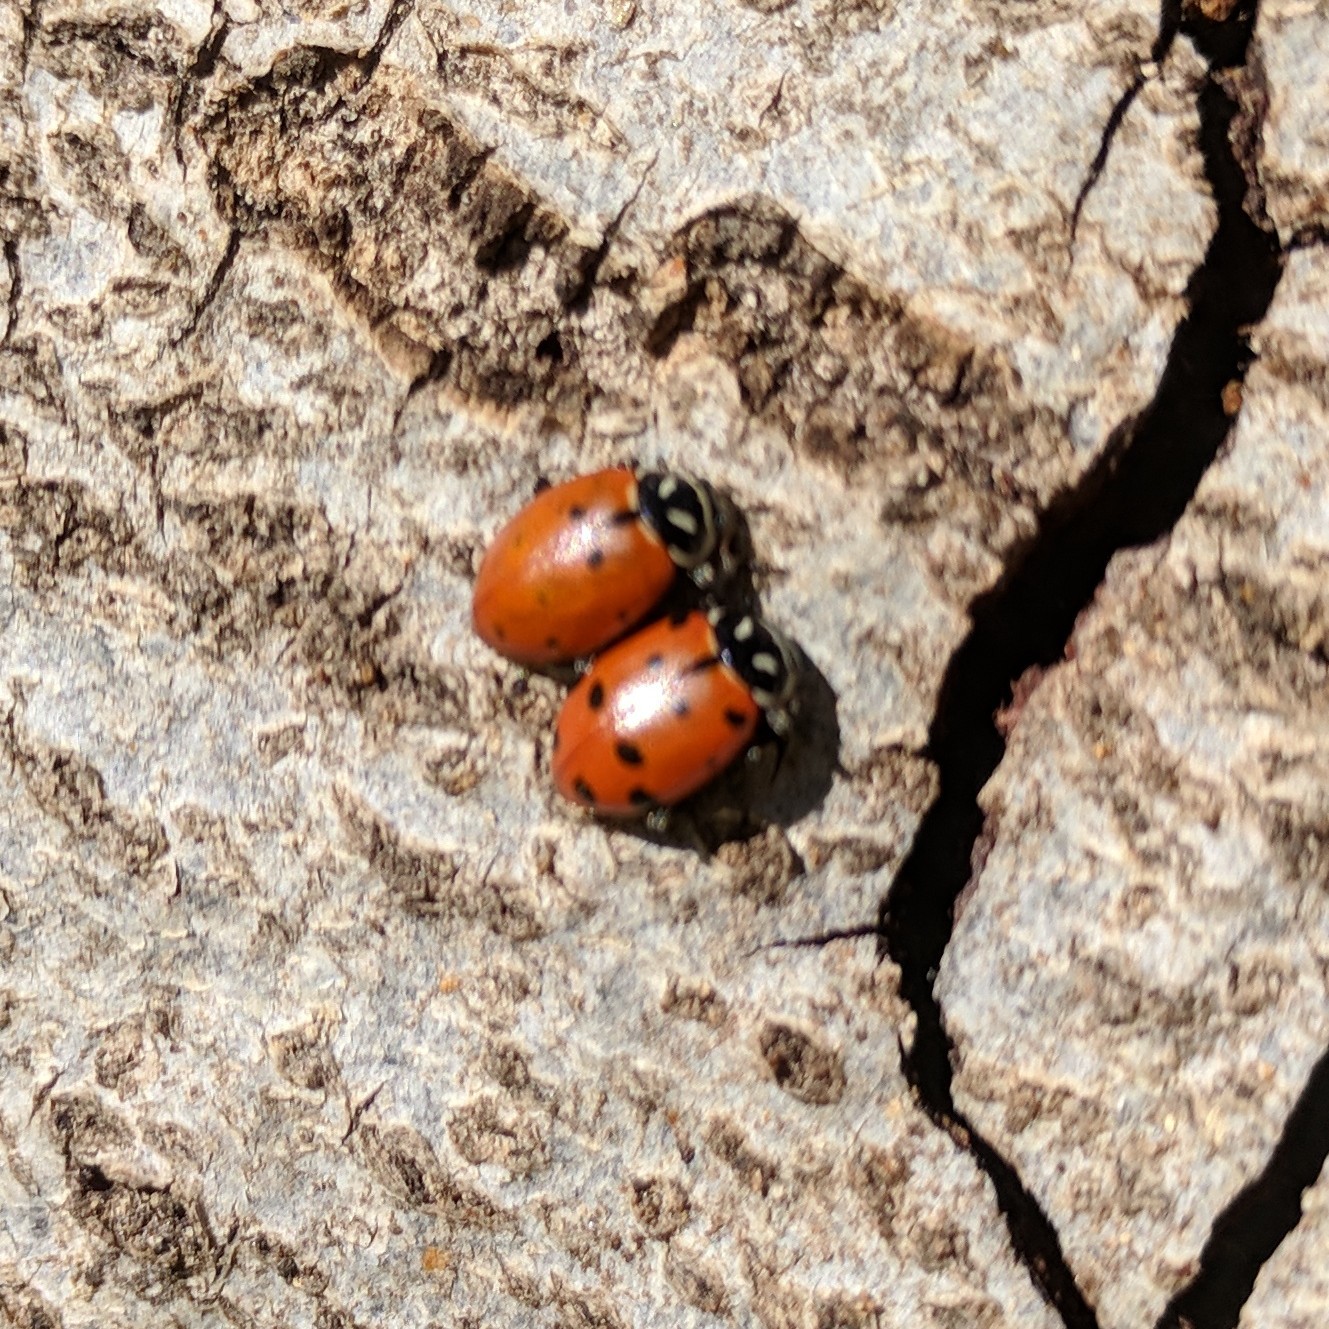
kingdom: Animalia
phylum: Arthropoda
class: Insecta
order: Coleoptera
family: Coccinellidae
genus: Hippodamia
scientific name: Hippodamia convergens
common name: Convergent lady beetle
